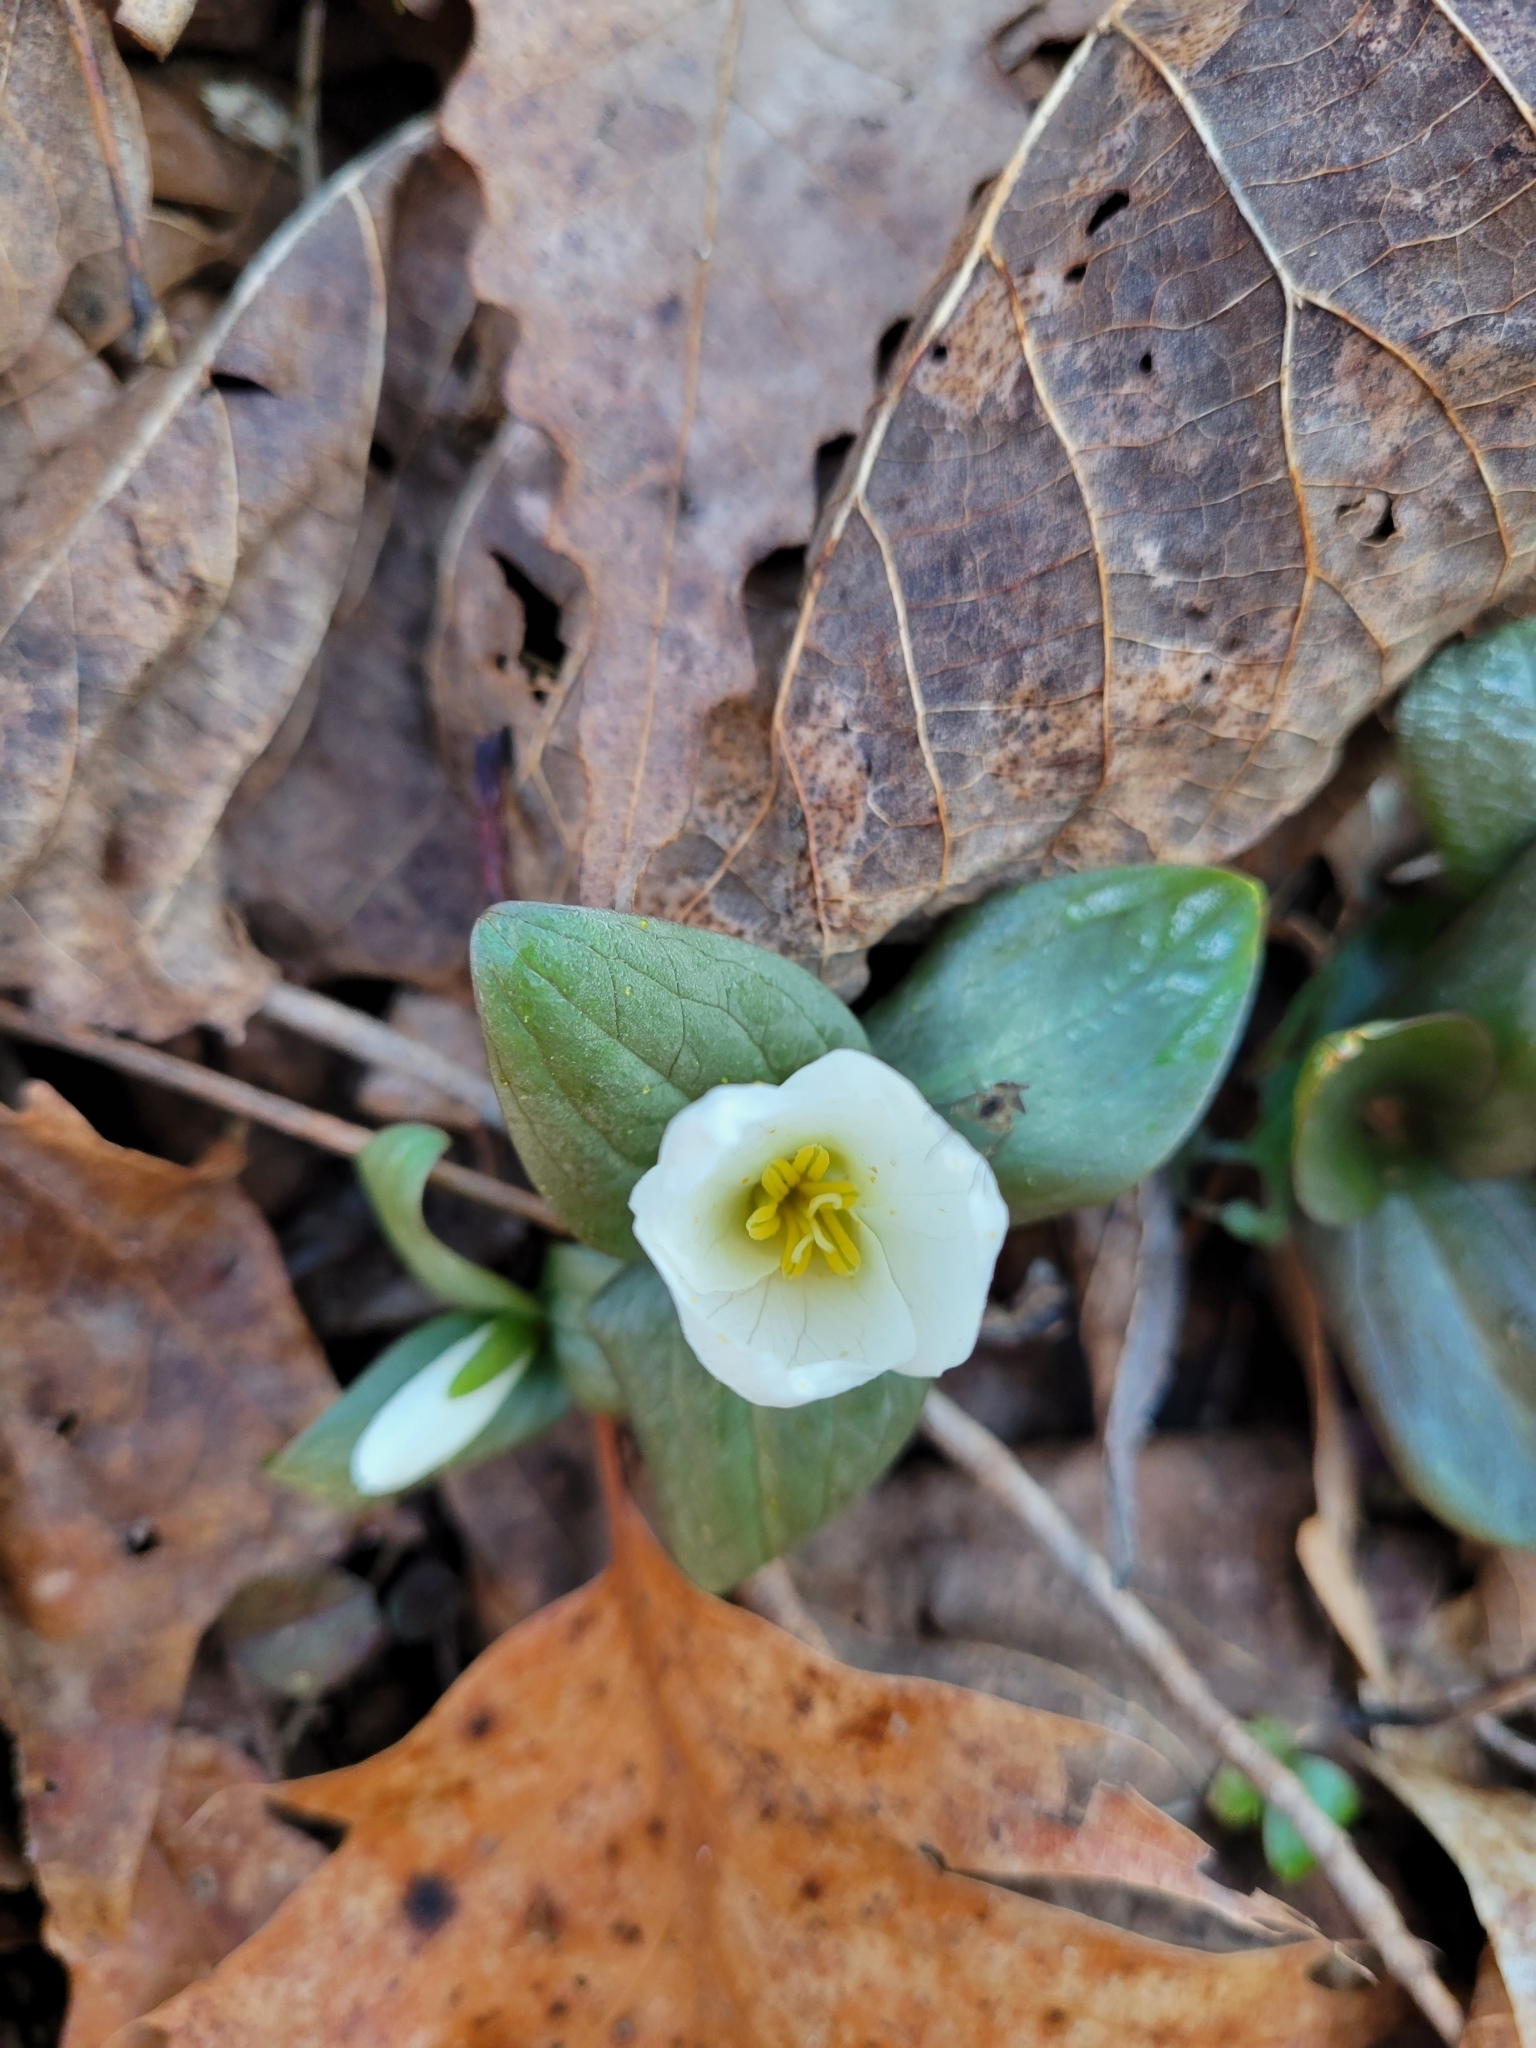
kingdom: Plantae
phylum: Tracheophyta
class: Liliopsida
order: Liliales
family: Melanthiaceae
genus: Trillium
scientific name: Trillium nivale
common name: Dwarf white trillium
